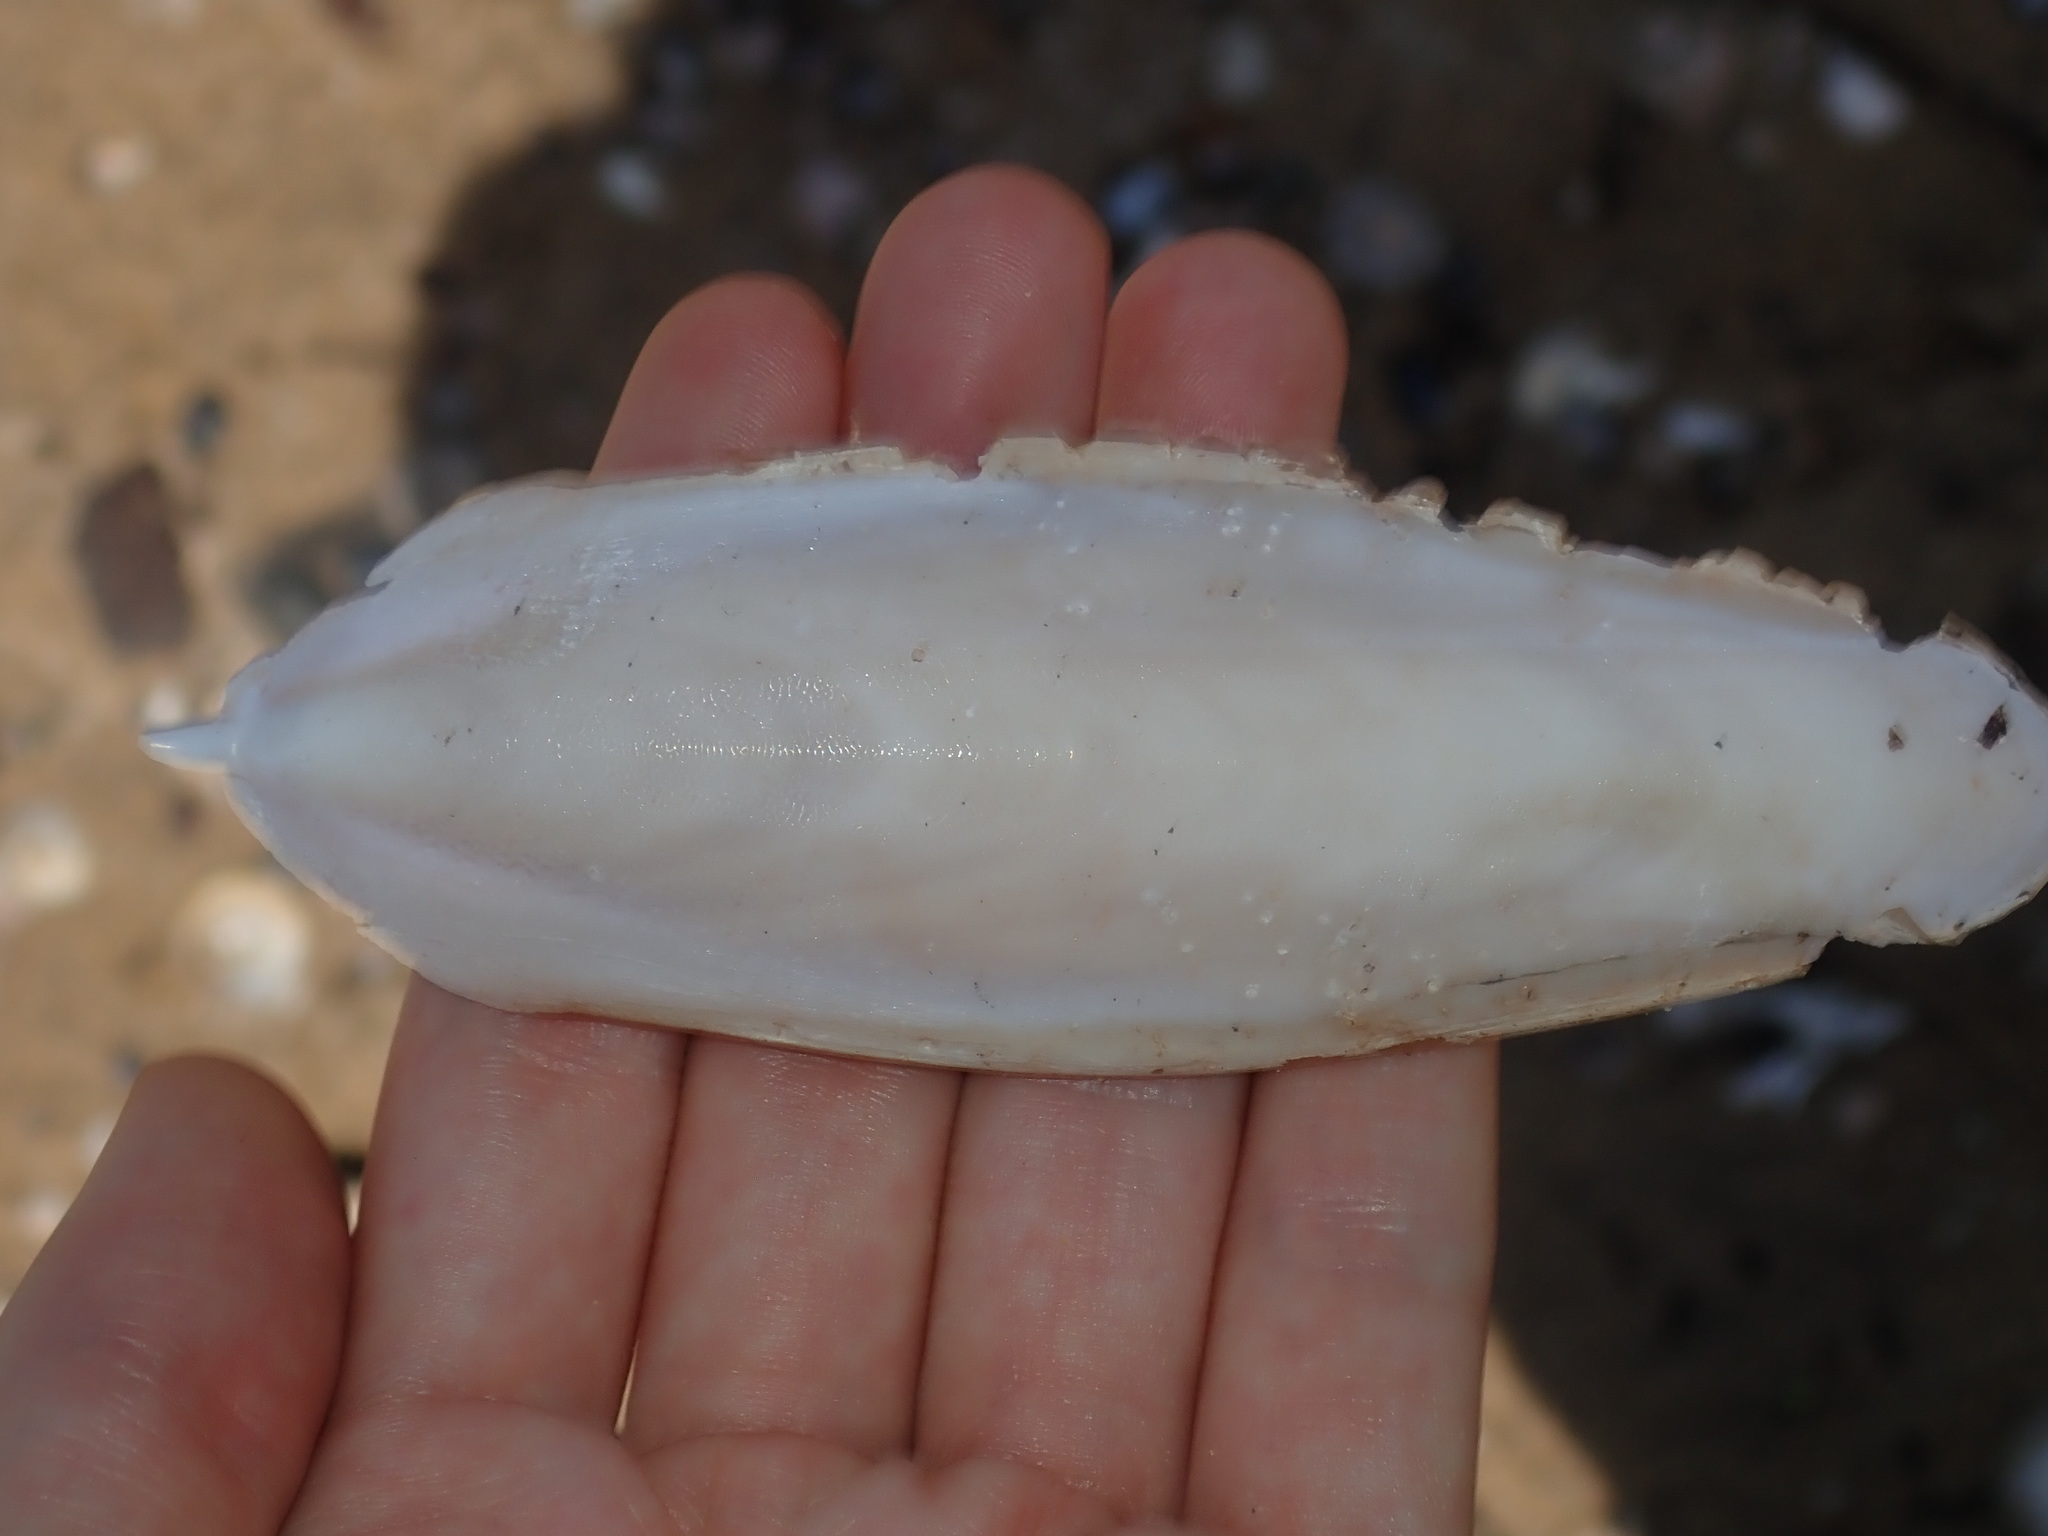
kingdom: Animalia
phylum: Mollusca
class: Cephalopoda
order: Sepiida
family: Sepiidae
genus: Ascarosepion
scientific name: Ascarosepion rozella
